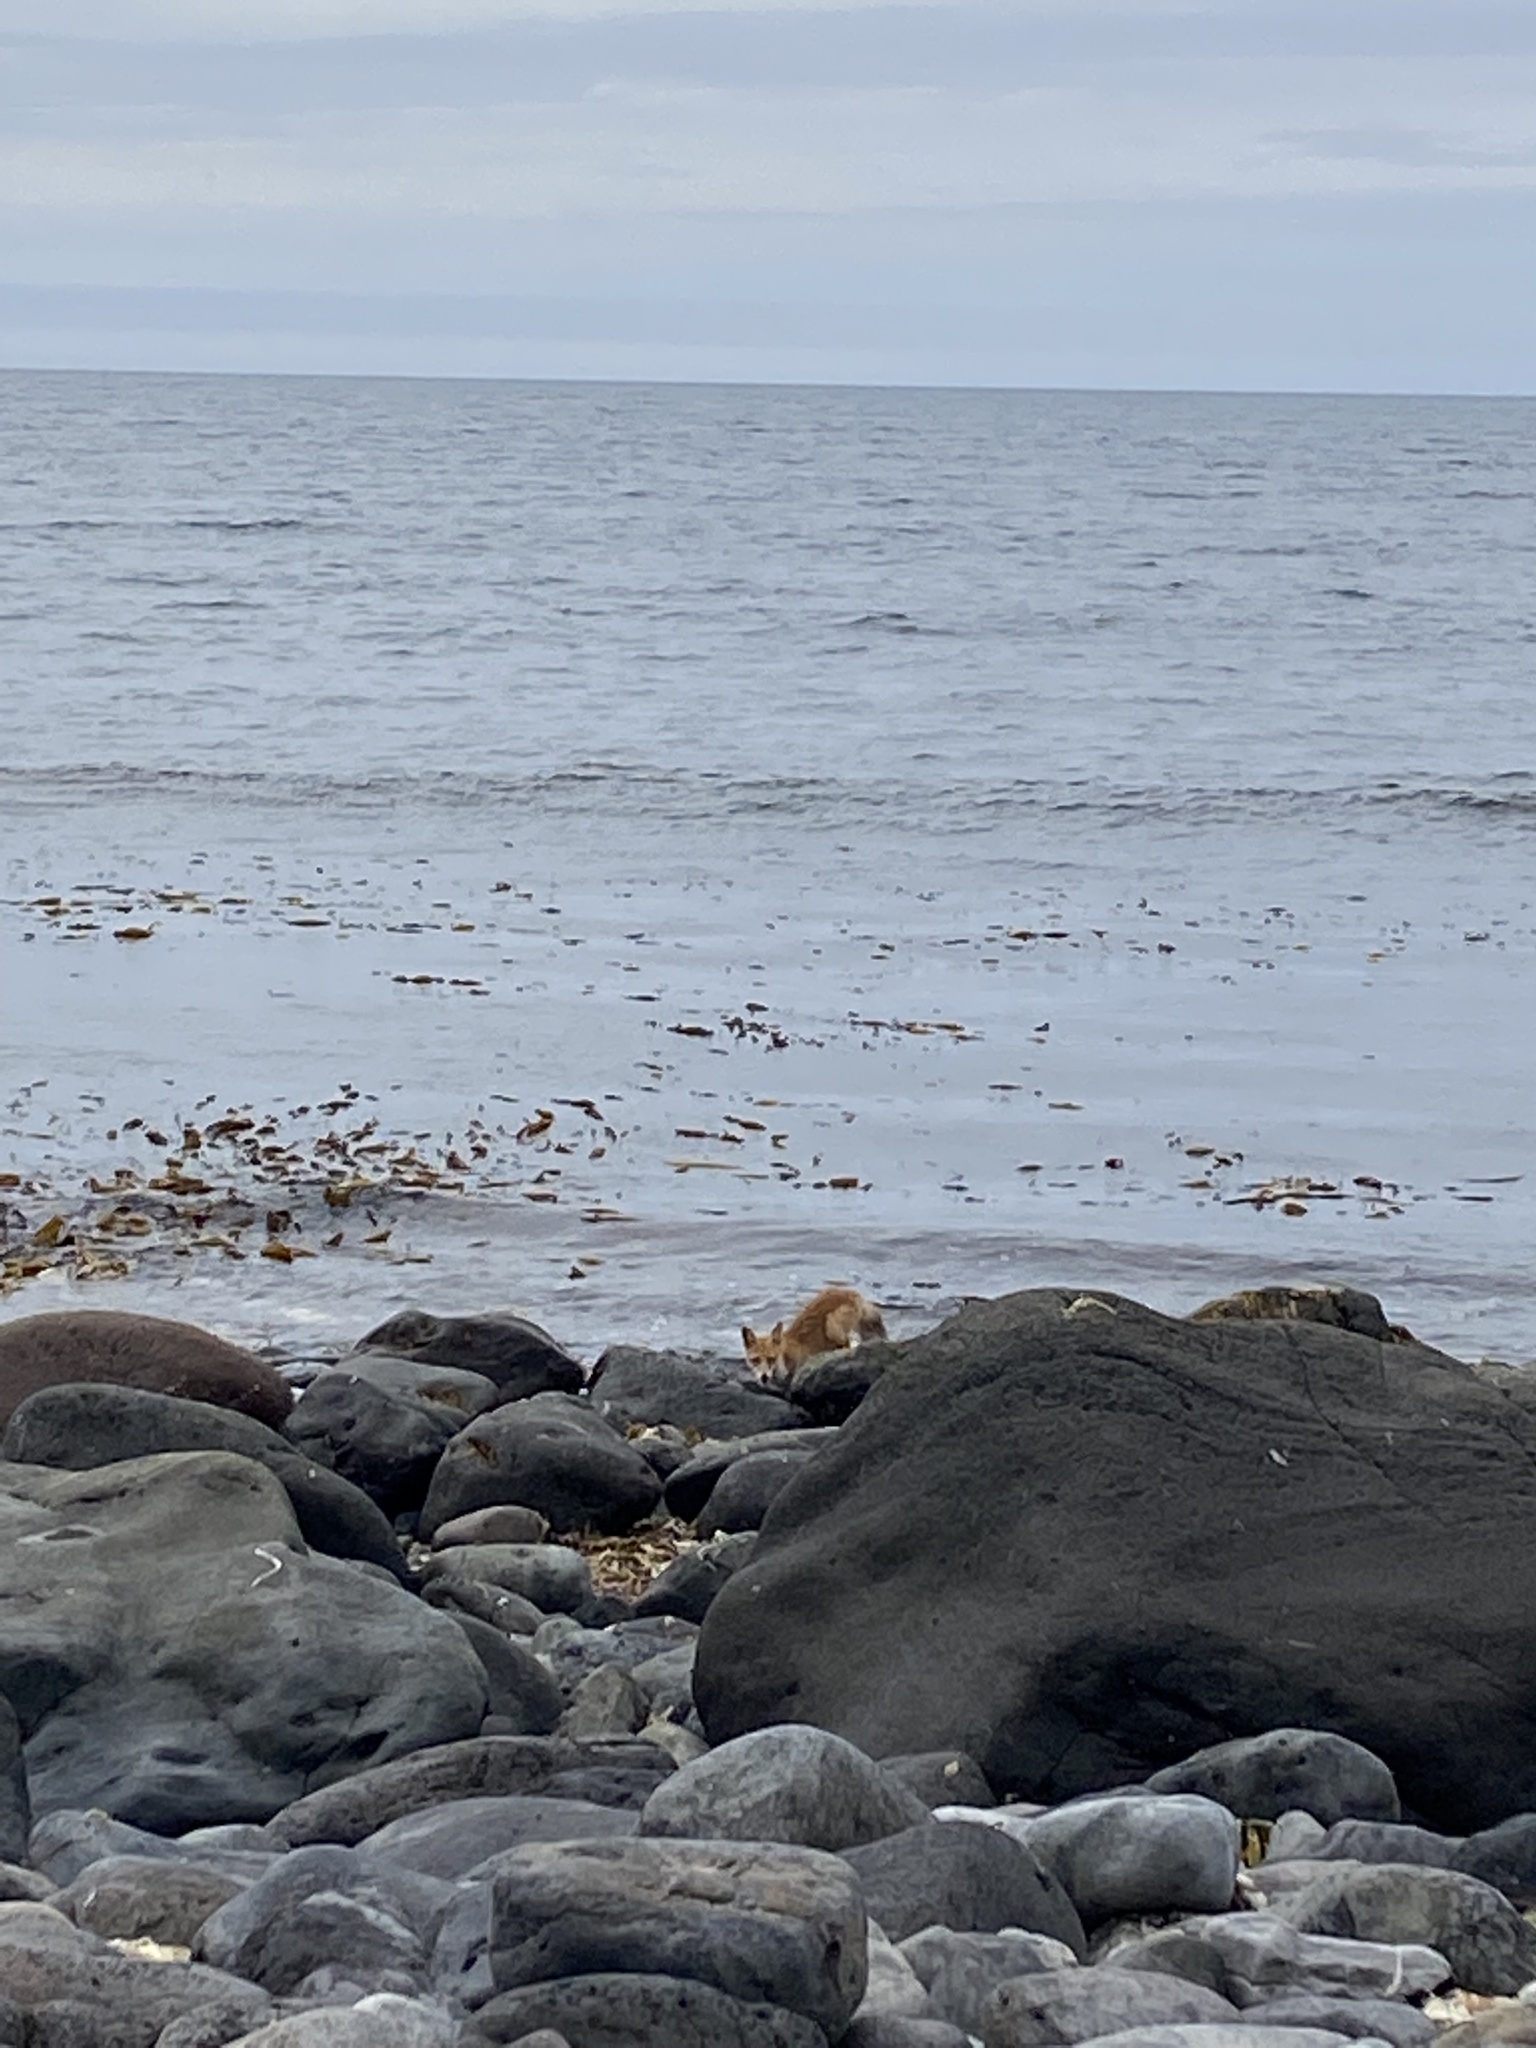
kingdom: Animalia
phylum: Chordata
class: Mammalia
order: Carnivora
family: Canidae
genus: Vulpes
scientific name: Vulpes vulpes
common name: Red fox
